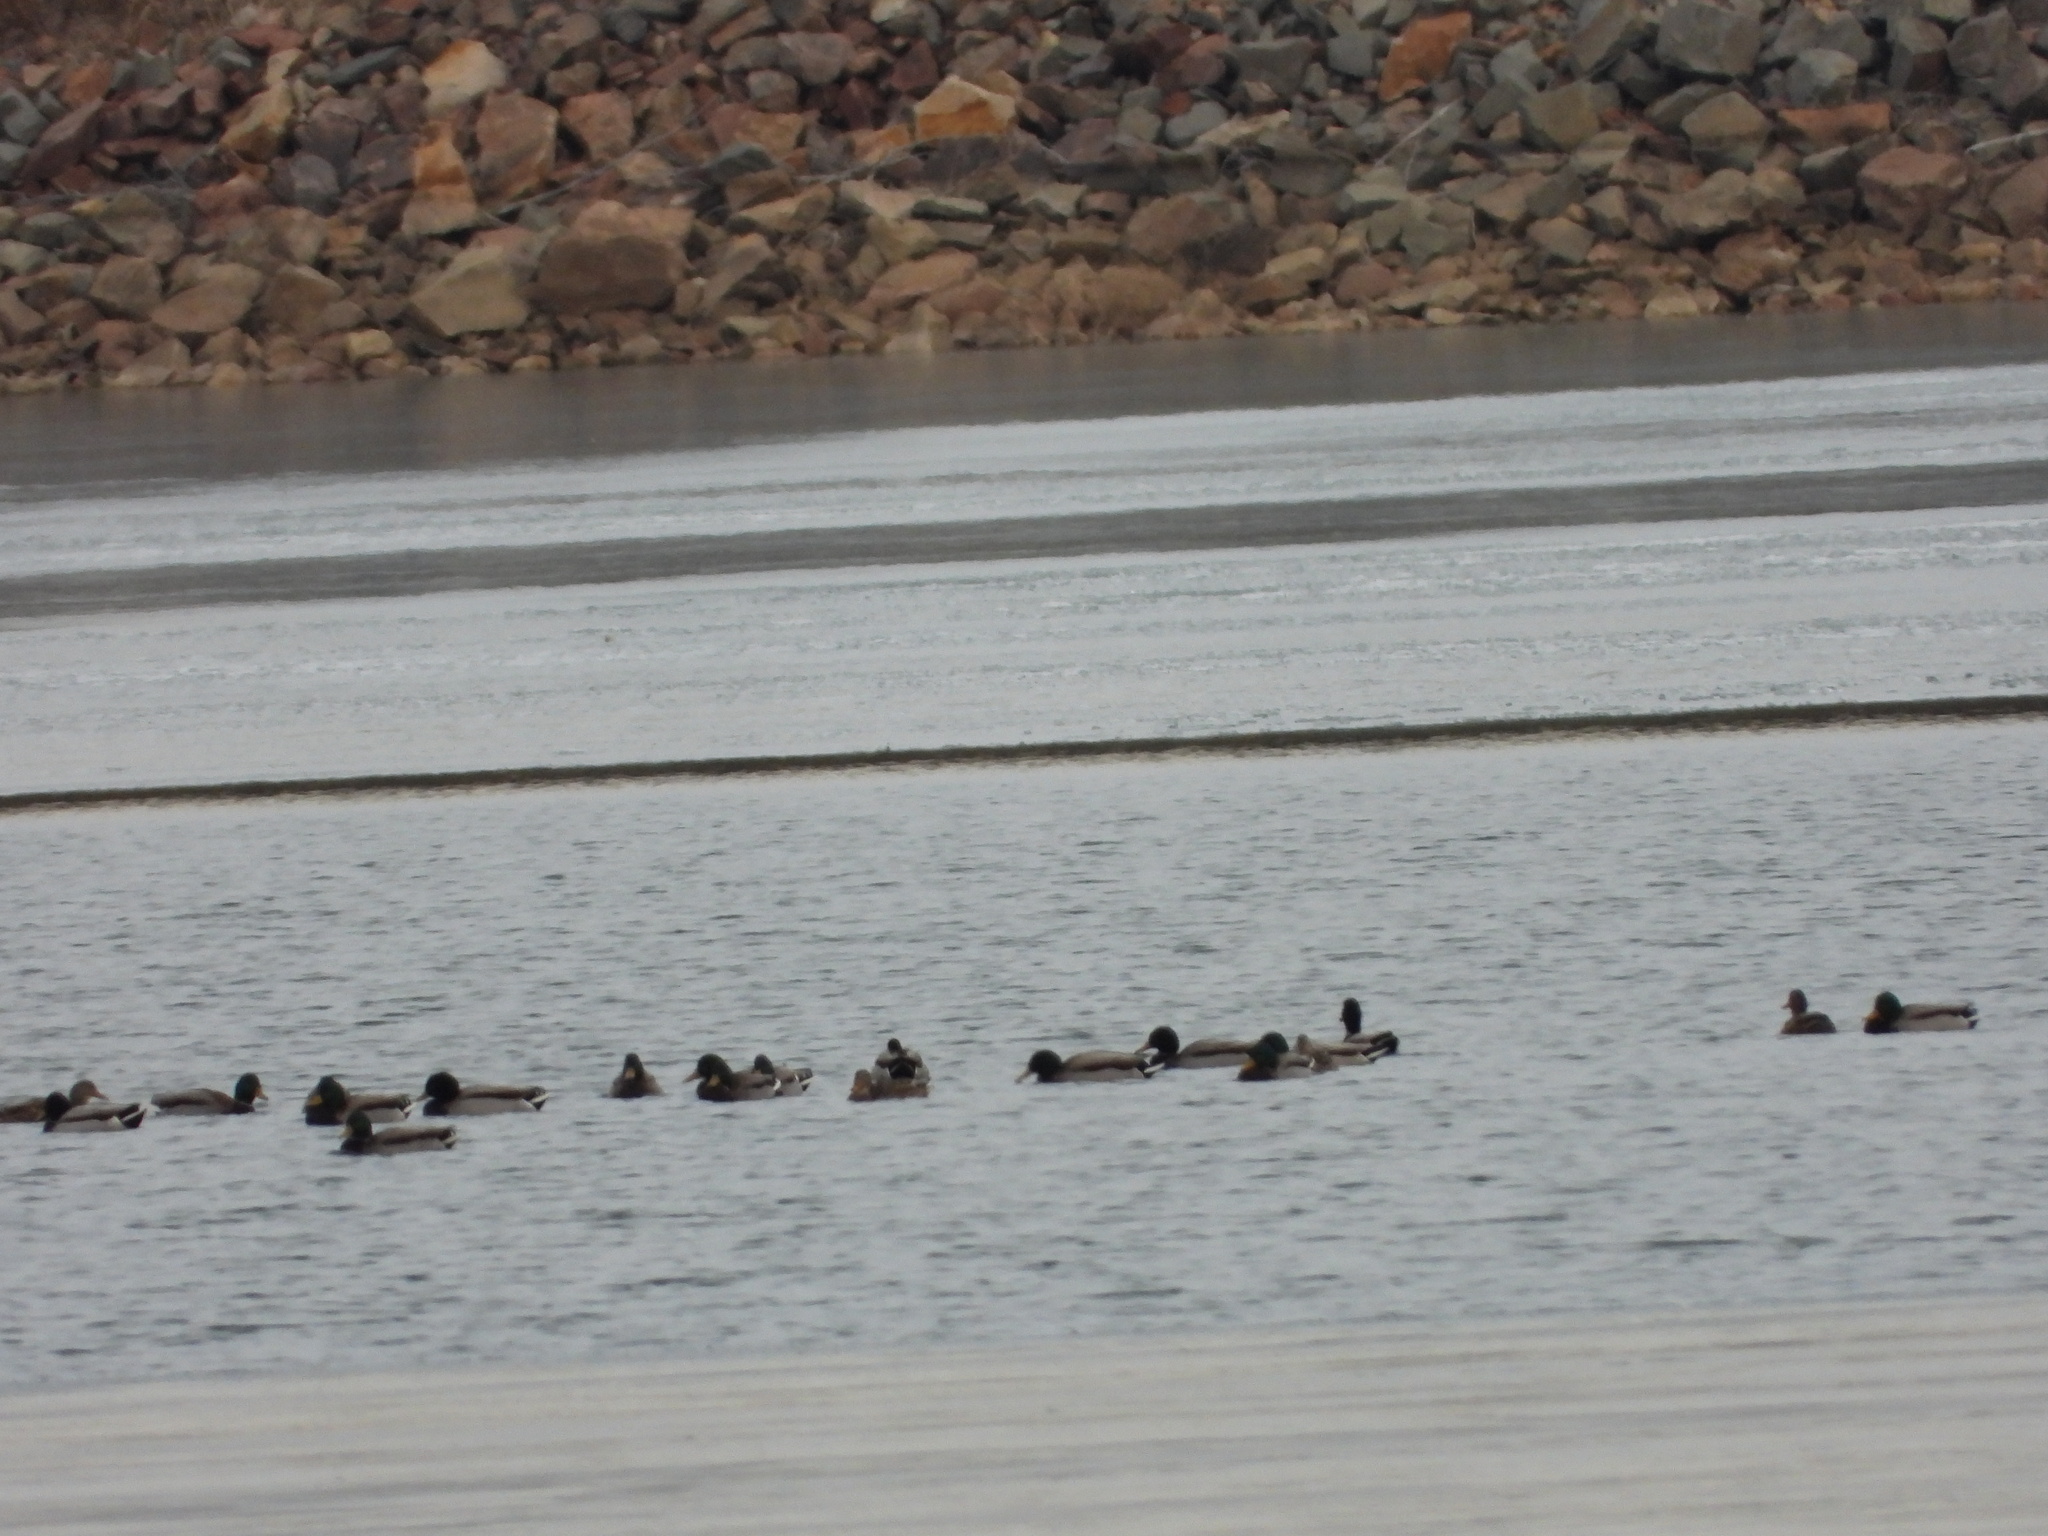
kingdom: Animalia
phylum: Chordata
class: Aves
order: Anseriformes
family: Anatidae
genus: Anas
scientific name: Anas platyrhynchos
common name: Mallard
